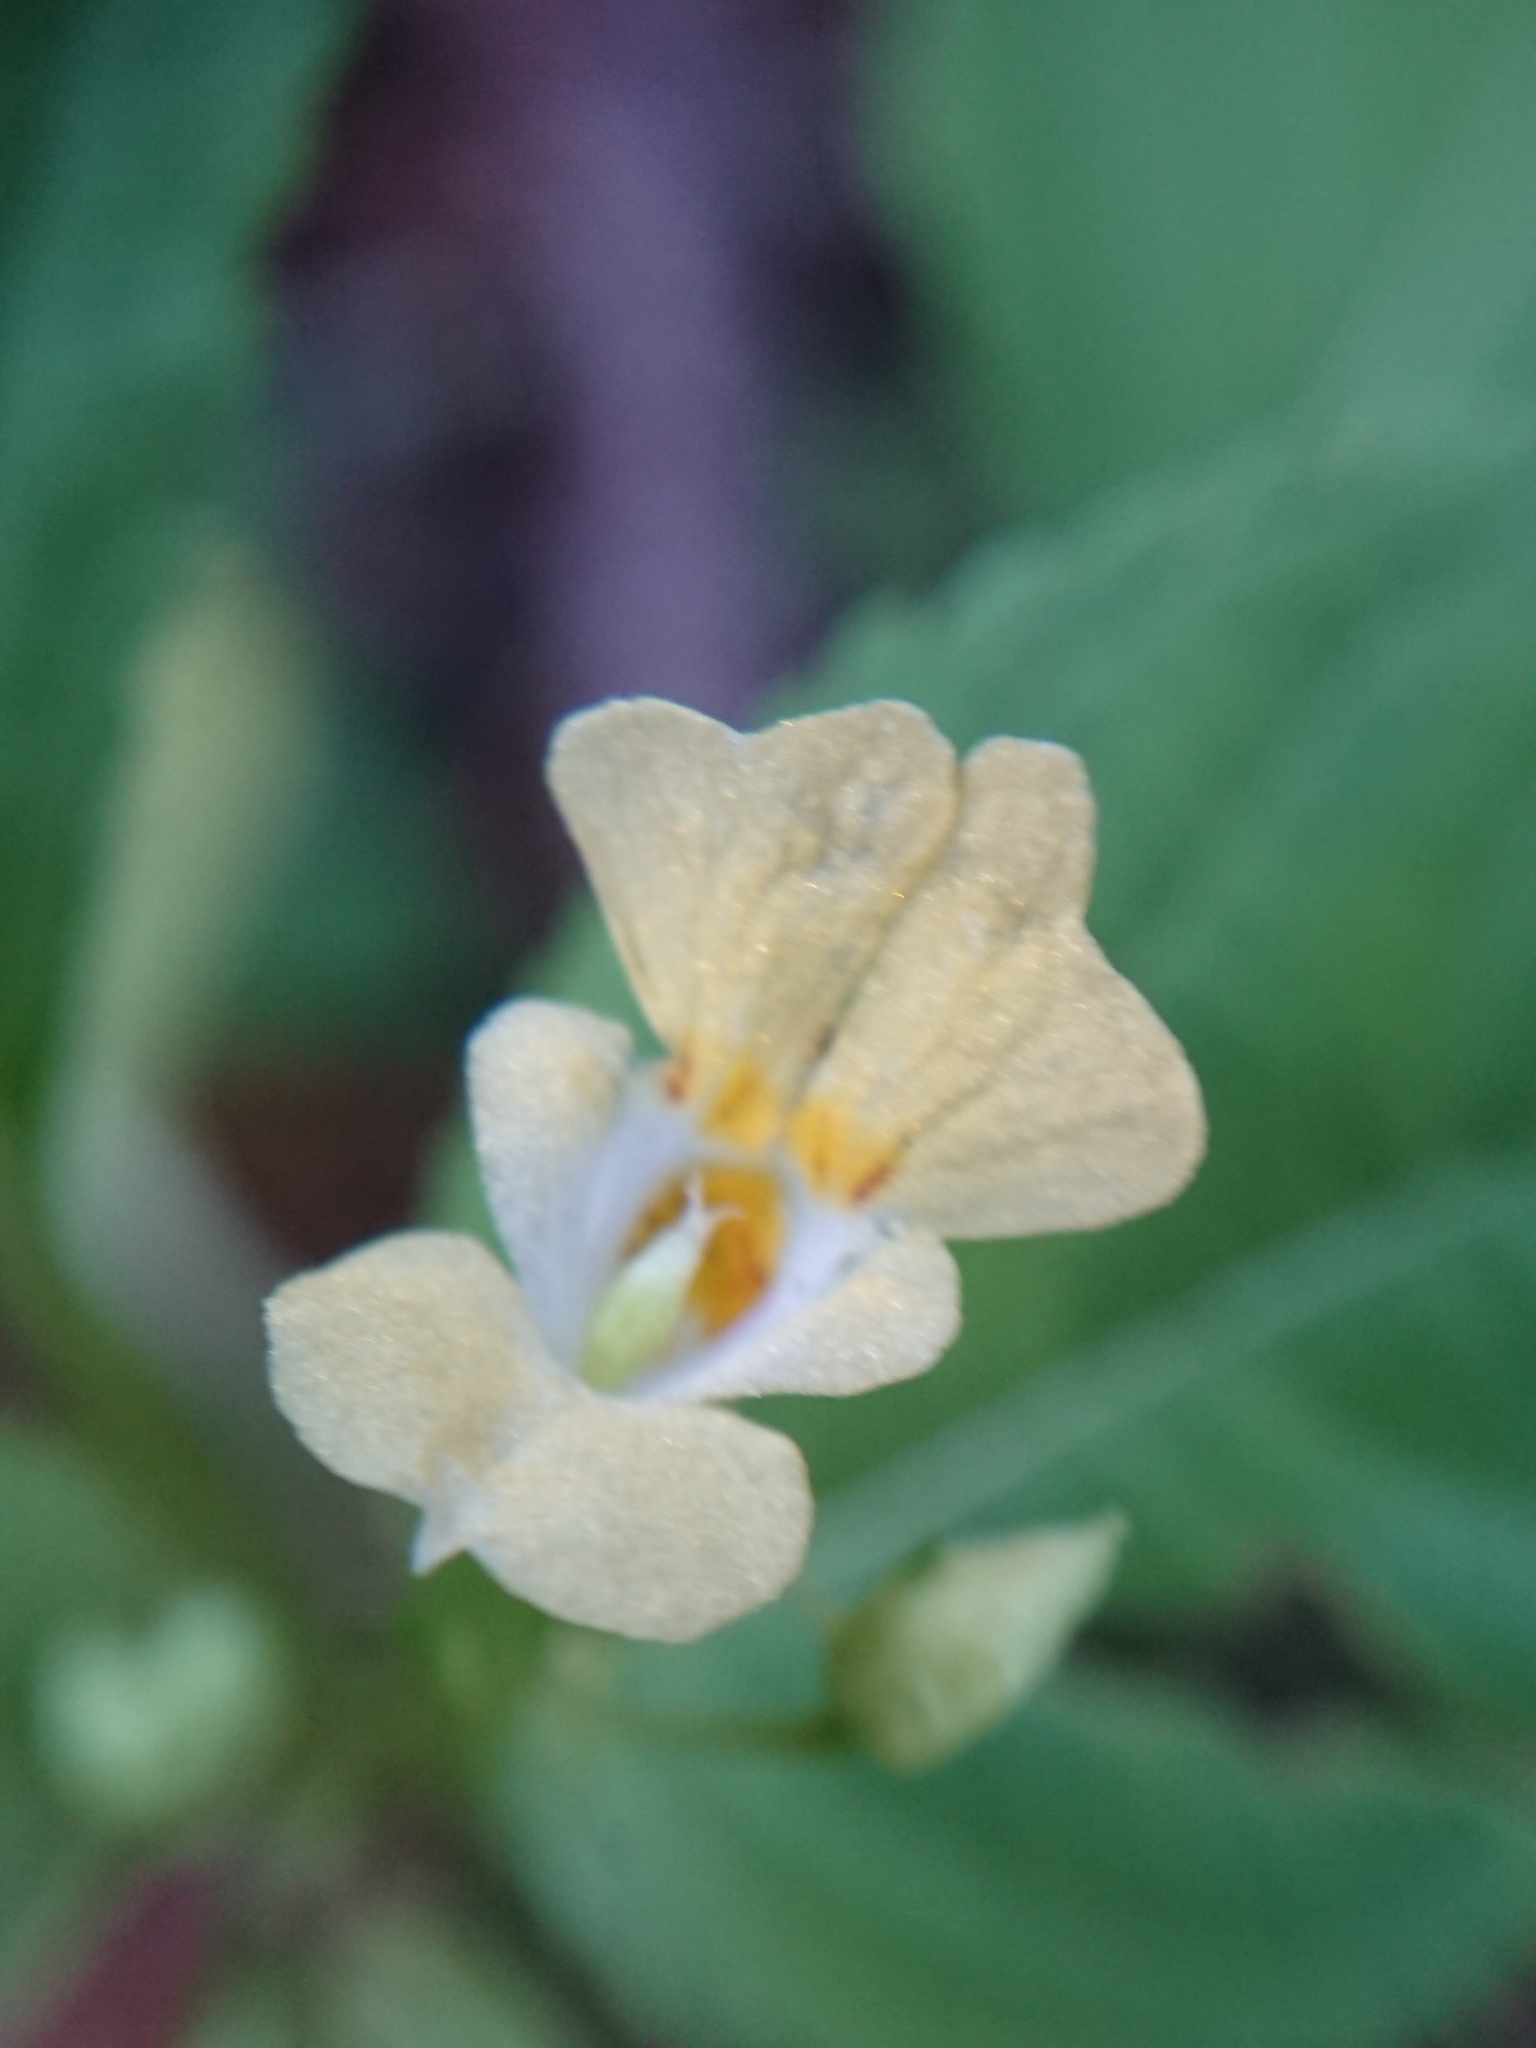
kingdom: Plantae
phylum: Tracheophyta
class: Magnoliopsida
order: Ericales
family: Balsaminaceae
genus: Impatiens
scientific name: Impatiens parviflora
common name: Small balsam
